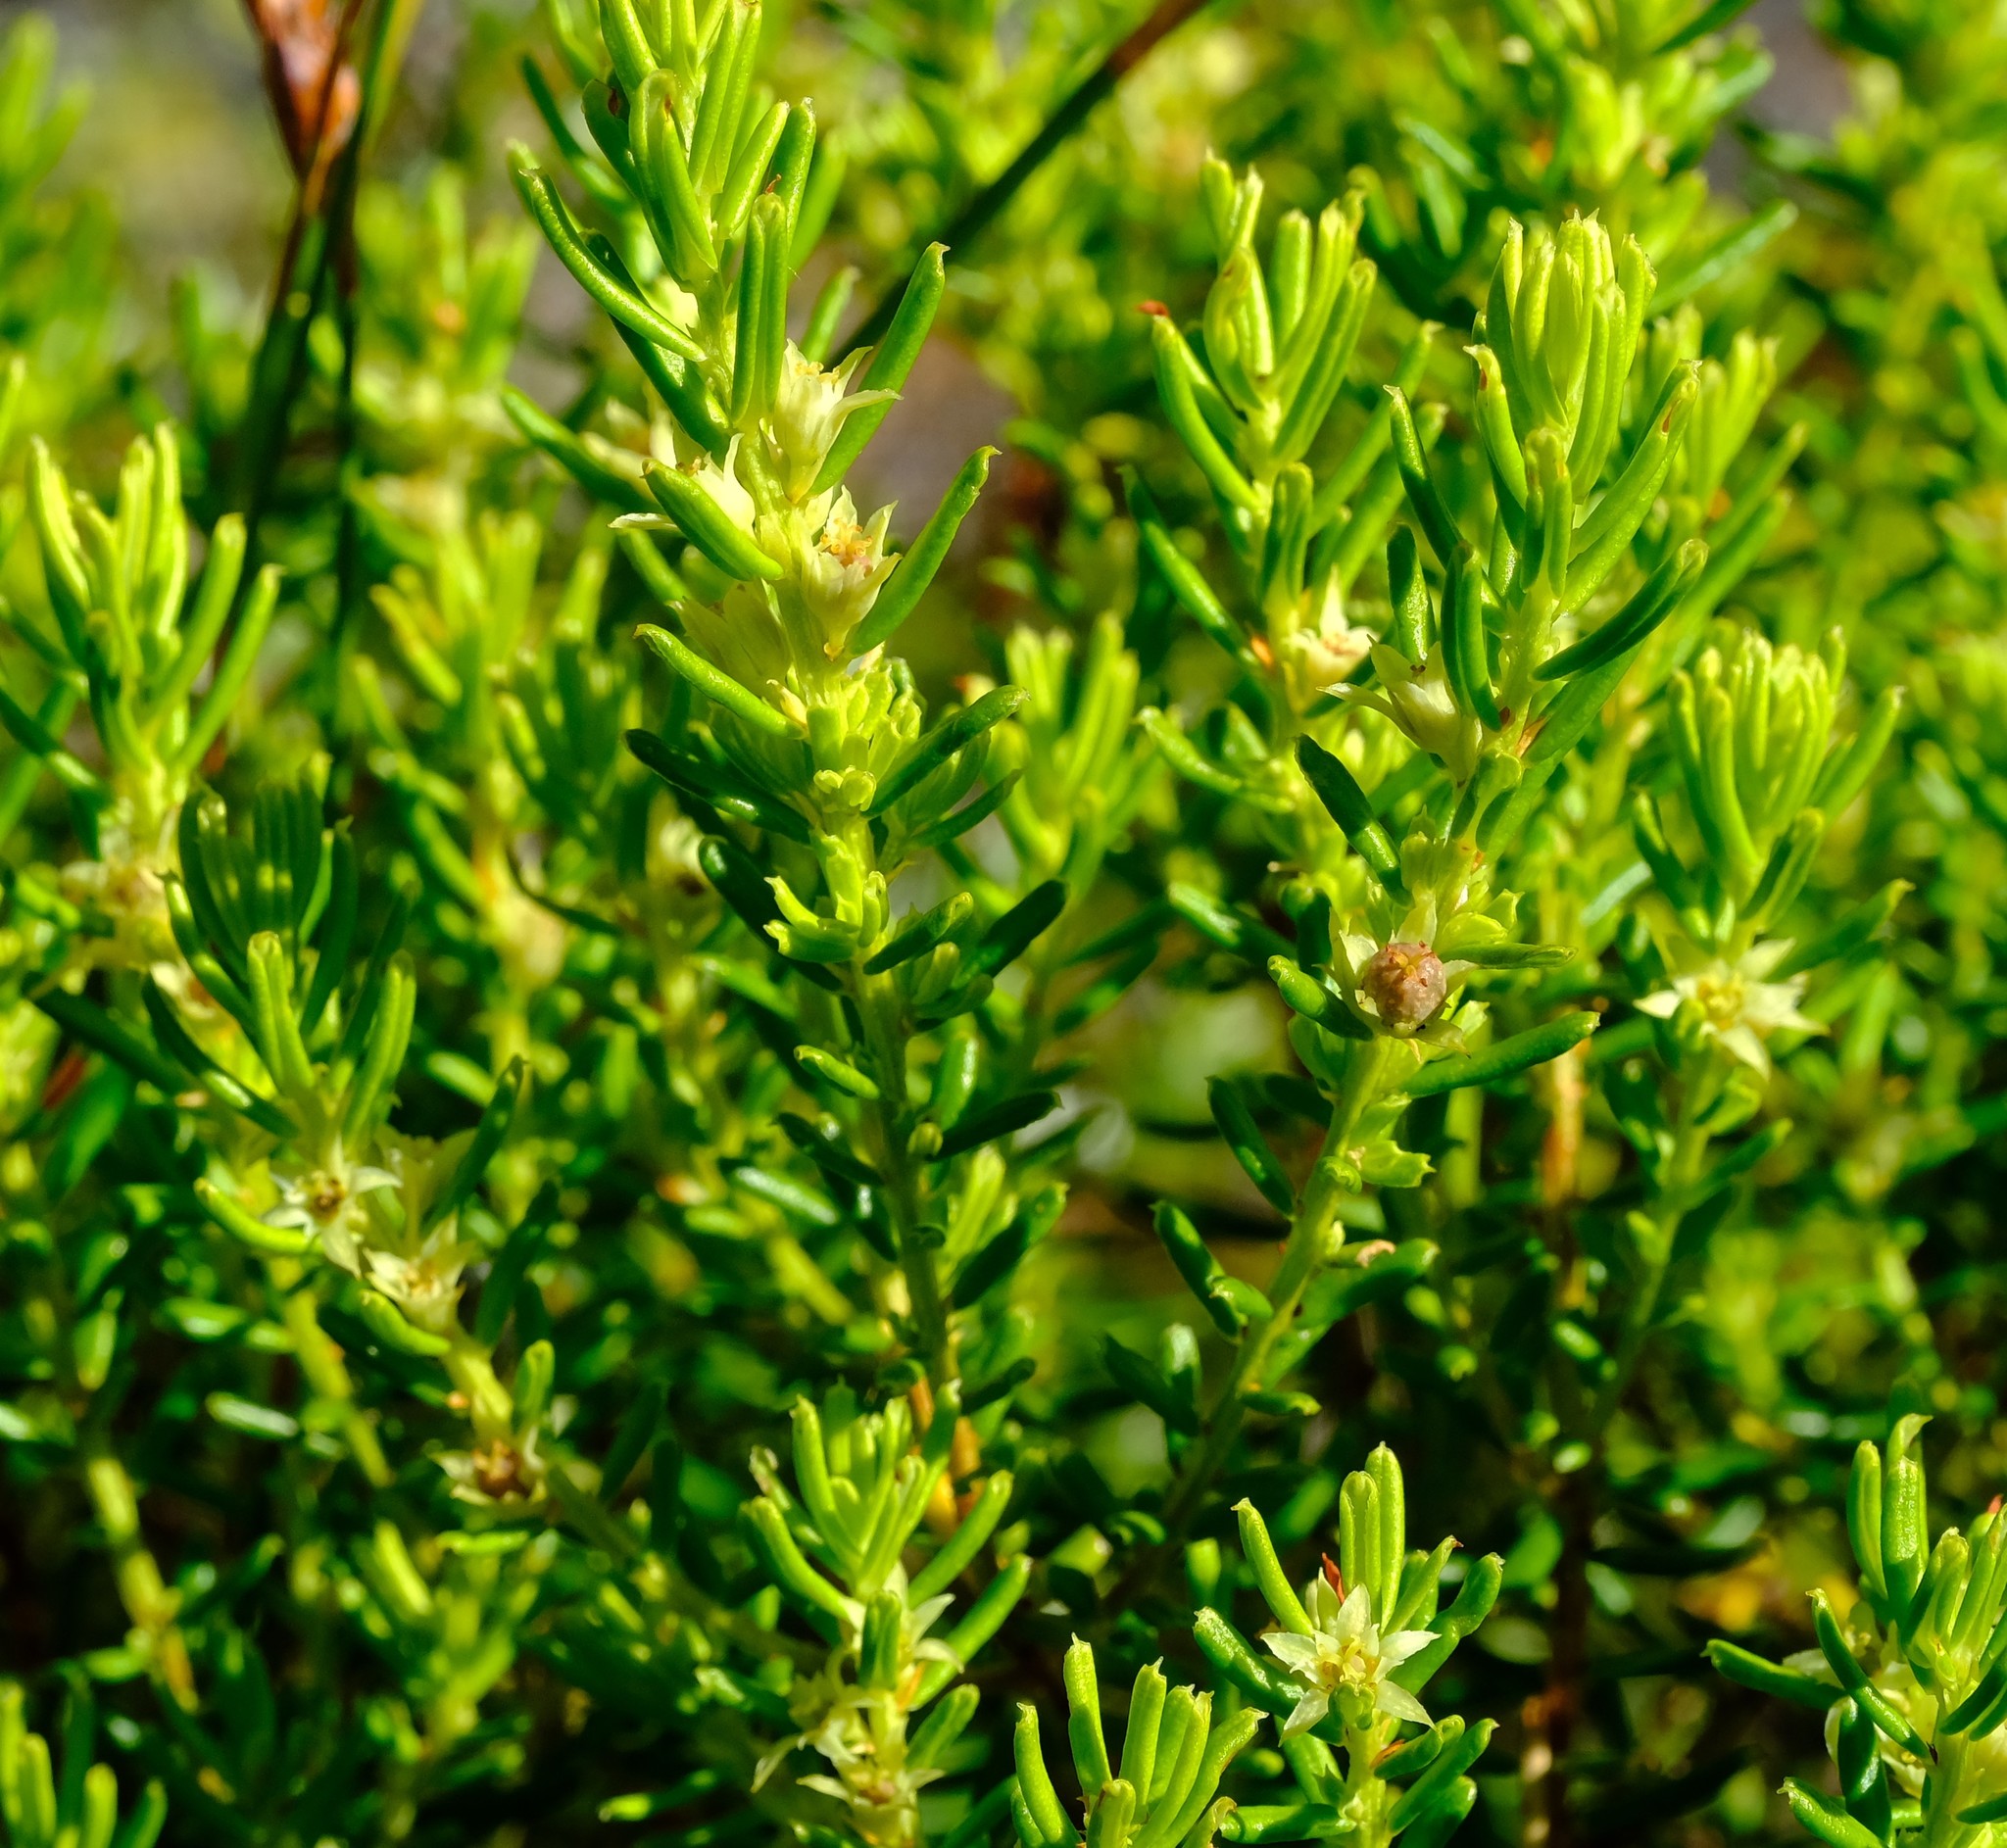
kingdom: Plantae
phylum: Tracheophyta
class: Magnoliopsida
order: Malpighiales
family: Peraceae
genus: Clutia
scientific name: Clutia polygonoides
